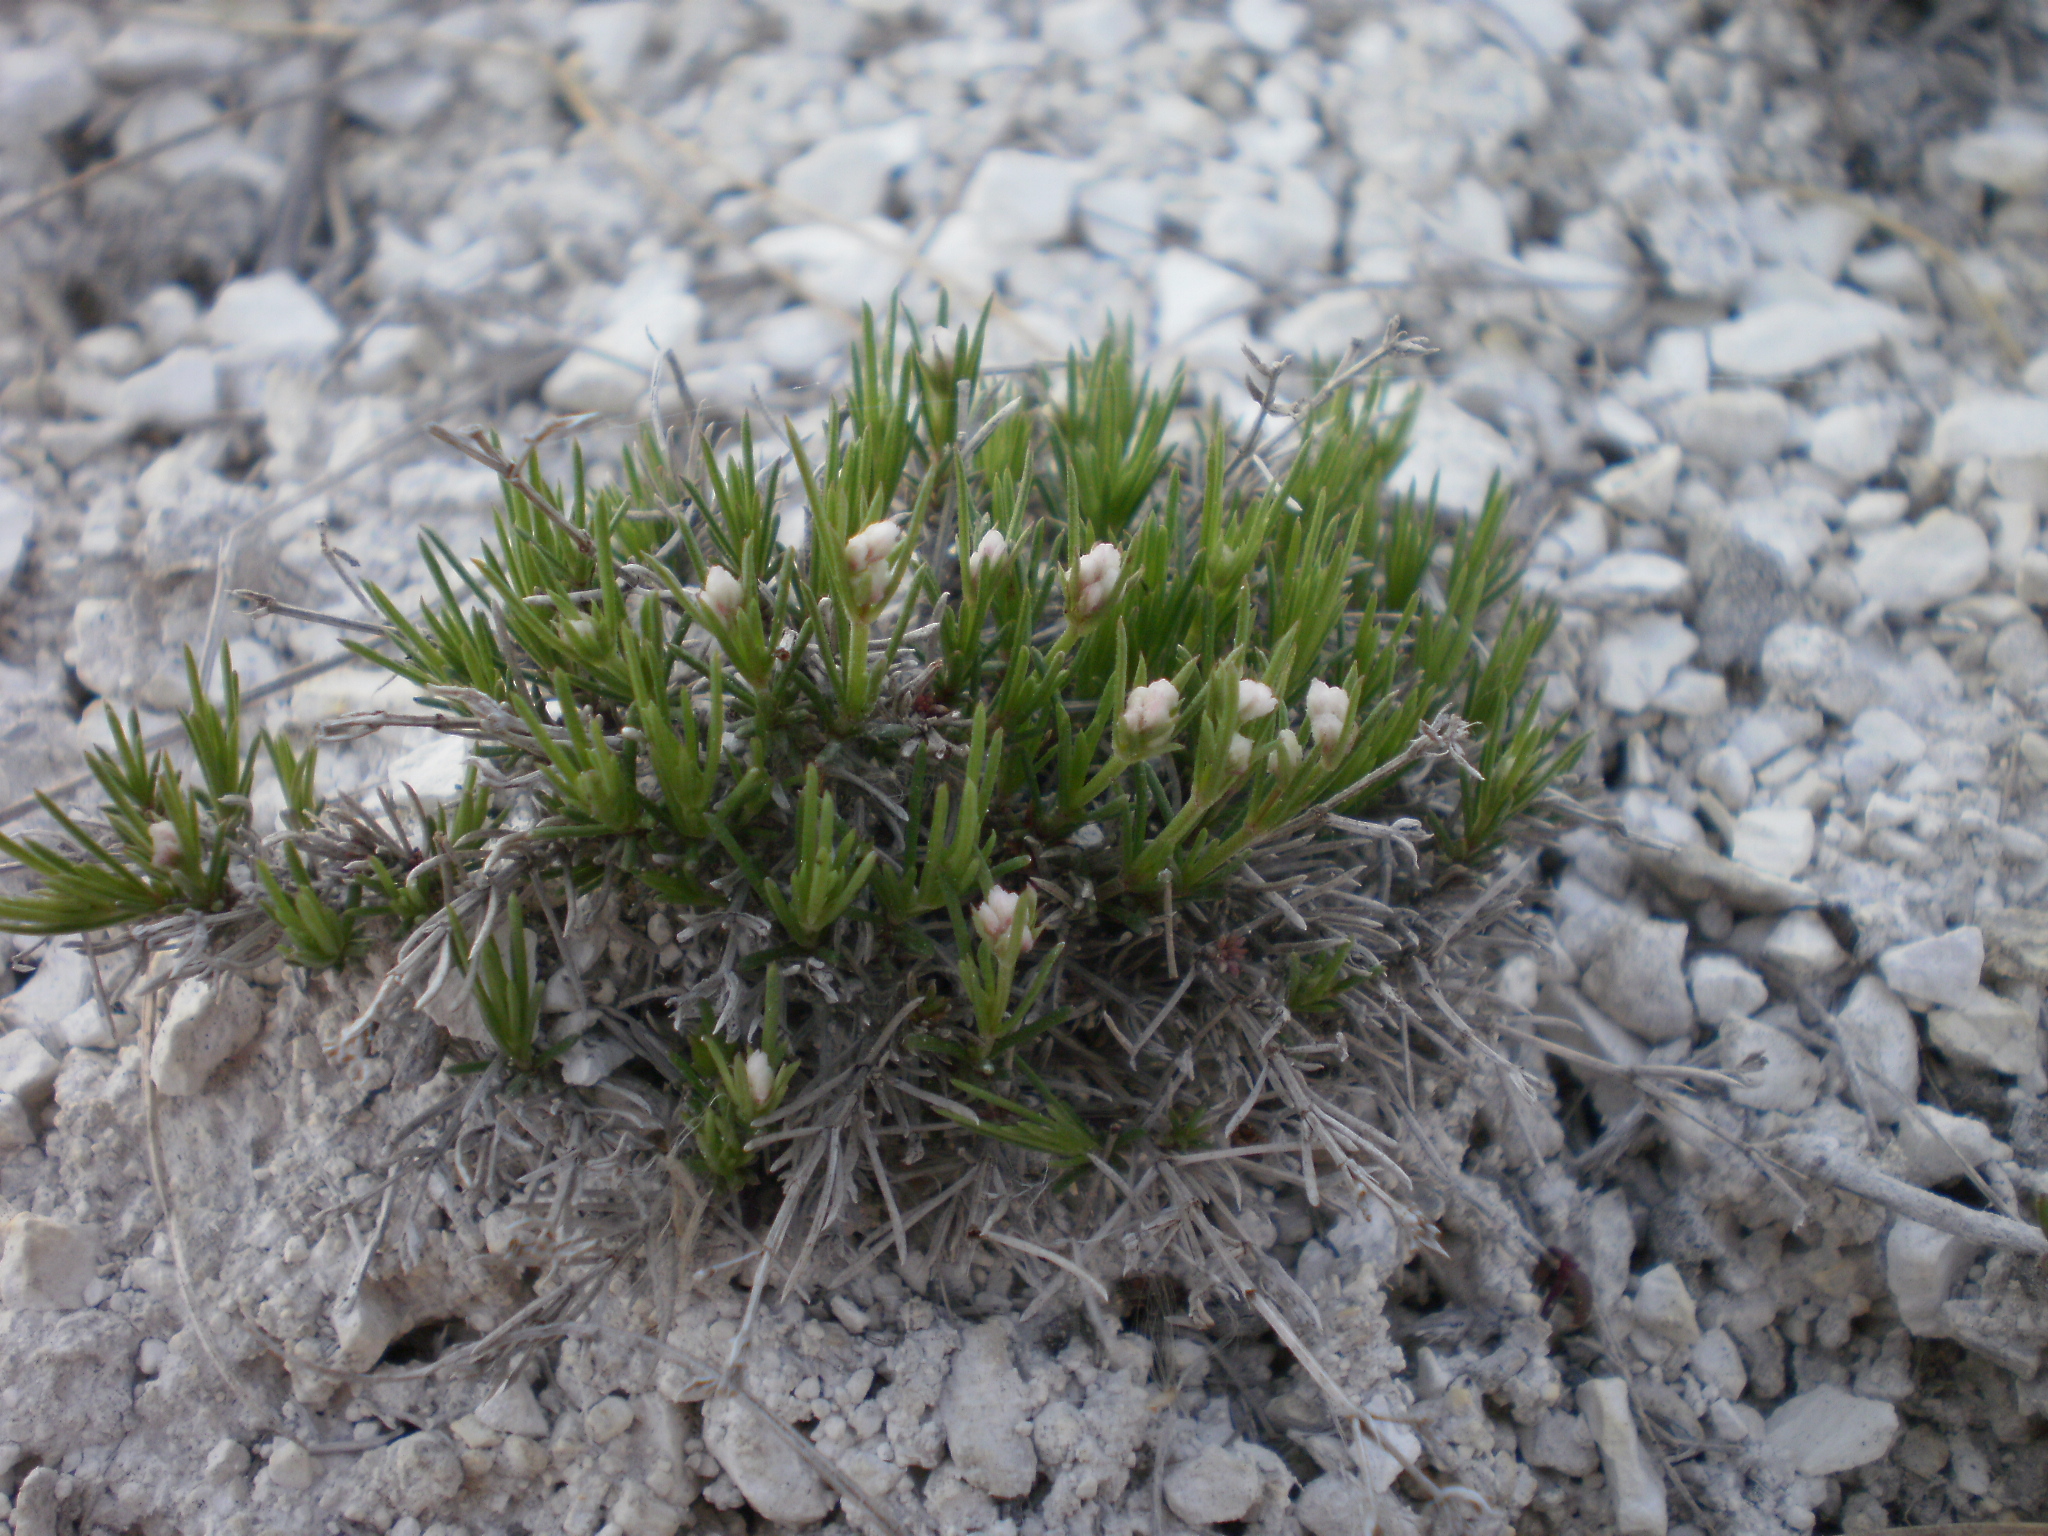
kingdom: Plantae
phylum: Tracheophyta
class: Magnoliopsida
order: Gentianales
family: Rubiaceae
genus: Cynanchica
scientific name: Cynanchica tephrocarpa
